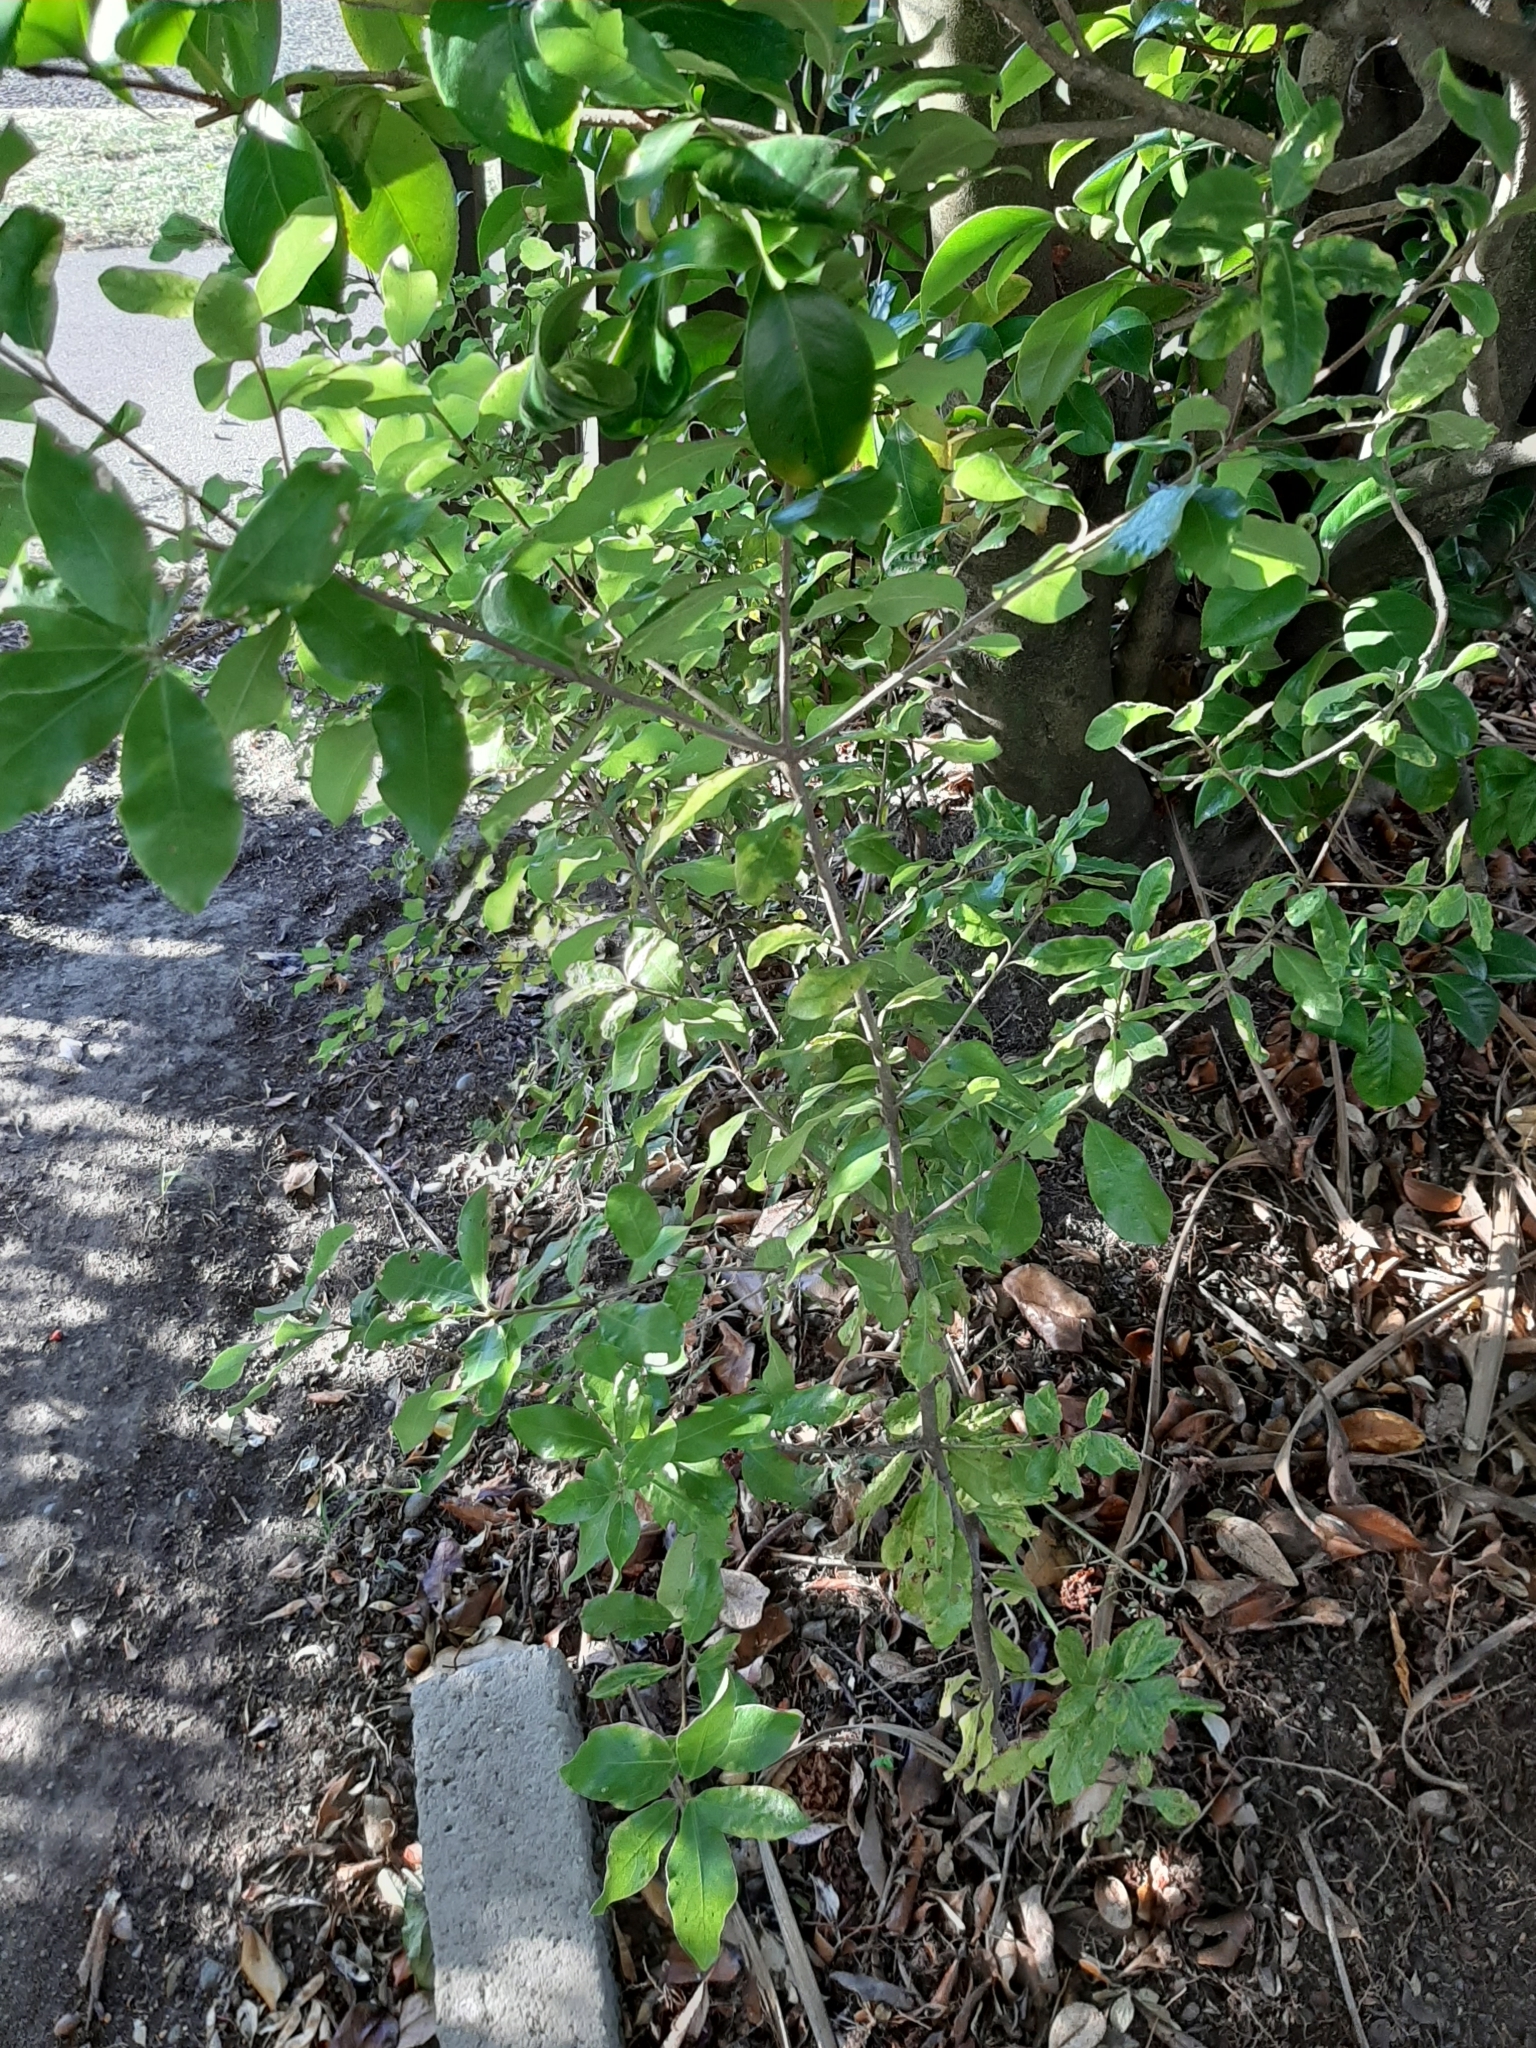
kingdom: Plantae
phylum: Tracheophyta
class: Magnoliopsida
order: Apiales
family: Pittosporaceae
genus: Pittosporum
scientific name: Pittosporum tenuifolium
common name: Kohuhu
